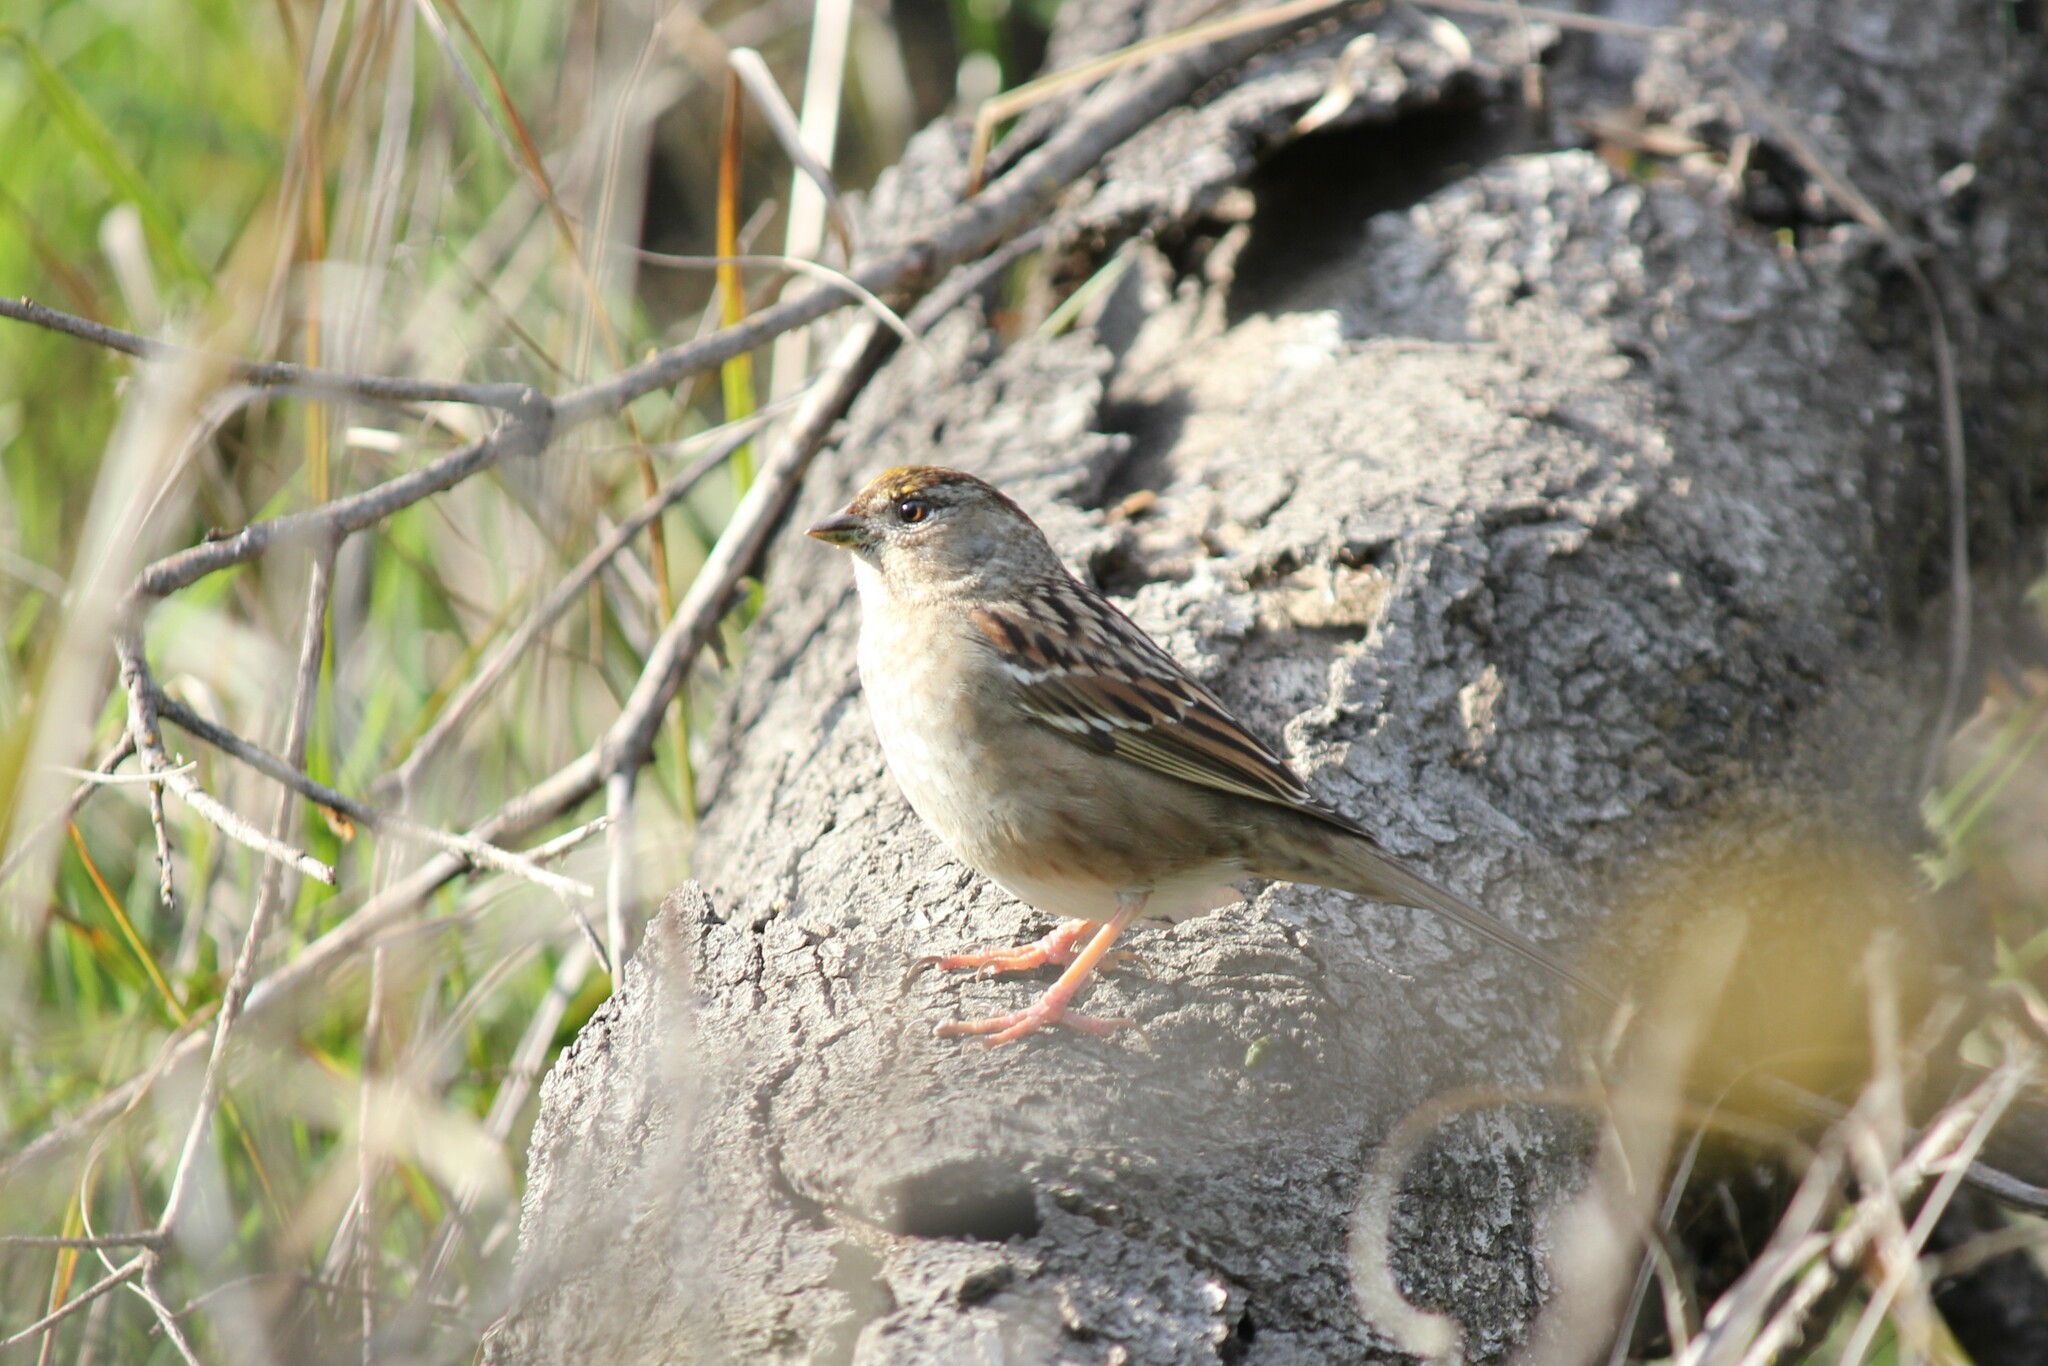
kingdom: Animalia
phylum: Chordata
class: Aves
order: Passeriformes
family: Passerellidae
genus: Zonotrichia
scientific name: Zonotrichia atricapilla
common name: Golden-crowned sparrow
